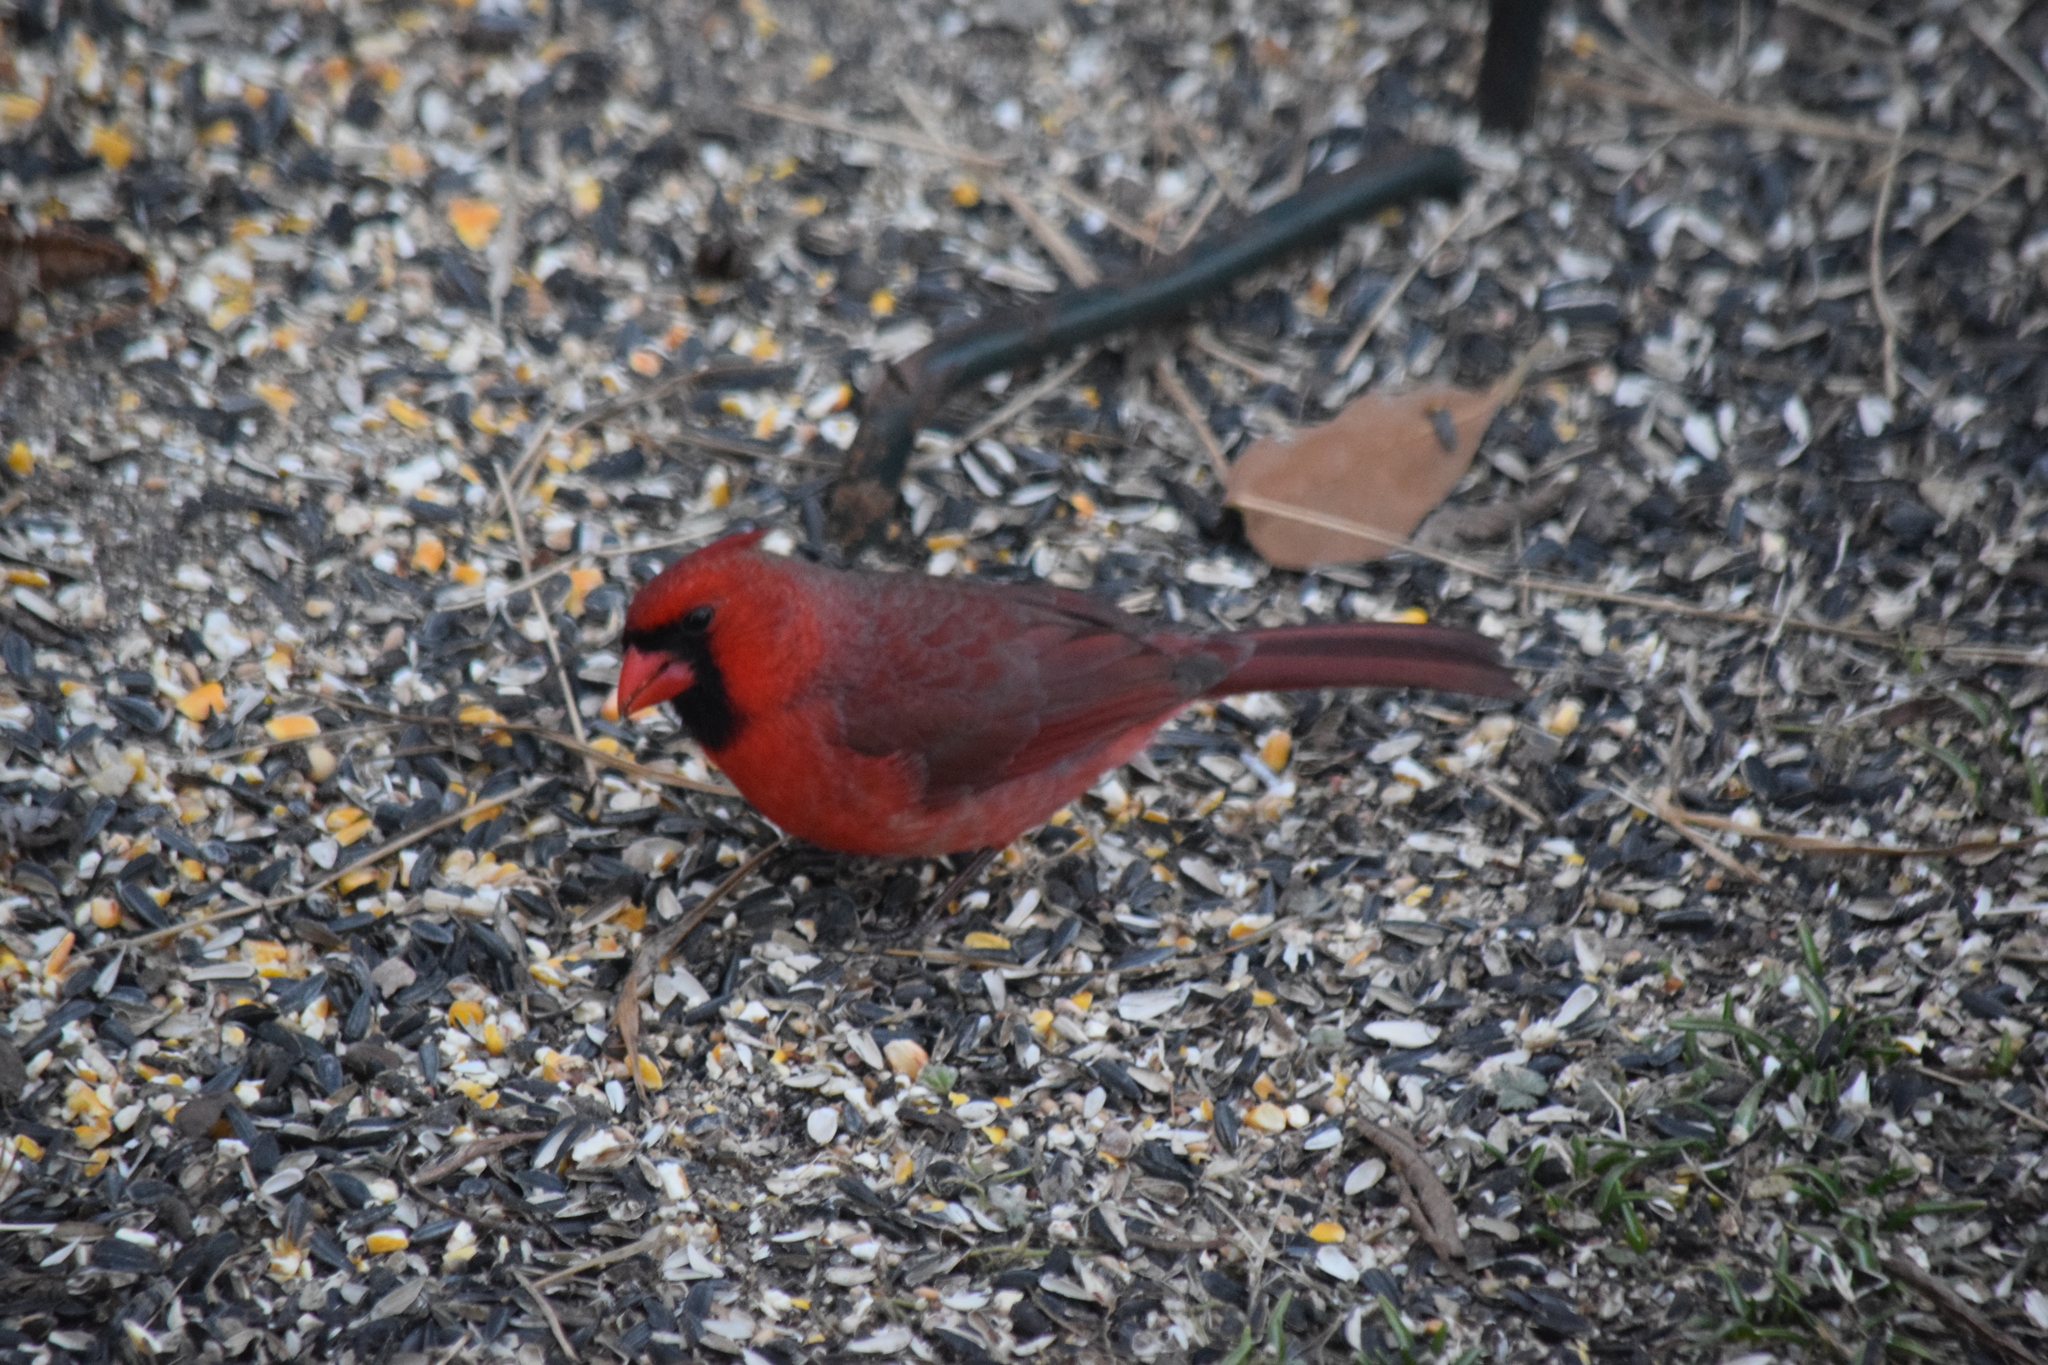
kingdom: Animalia
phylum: Chordata
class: Aves
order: Passeriformes
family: Cardinalidae
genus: Cardinalis
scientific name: Cardinalis cardinalis
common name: Northern cardinal
